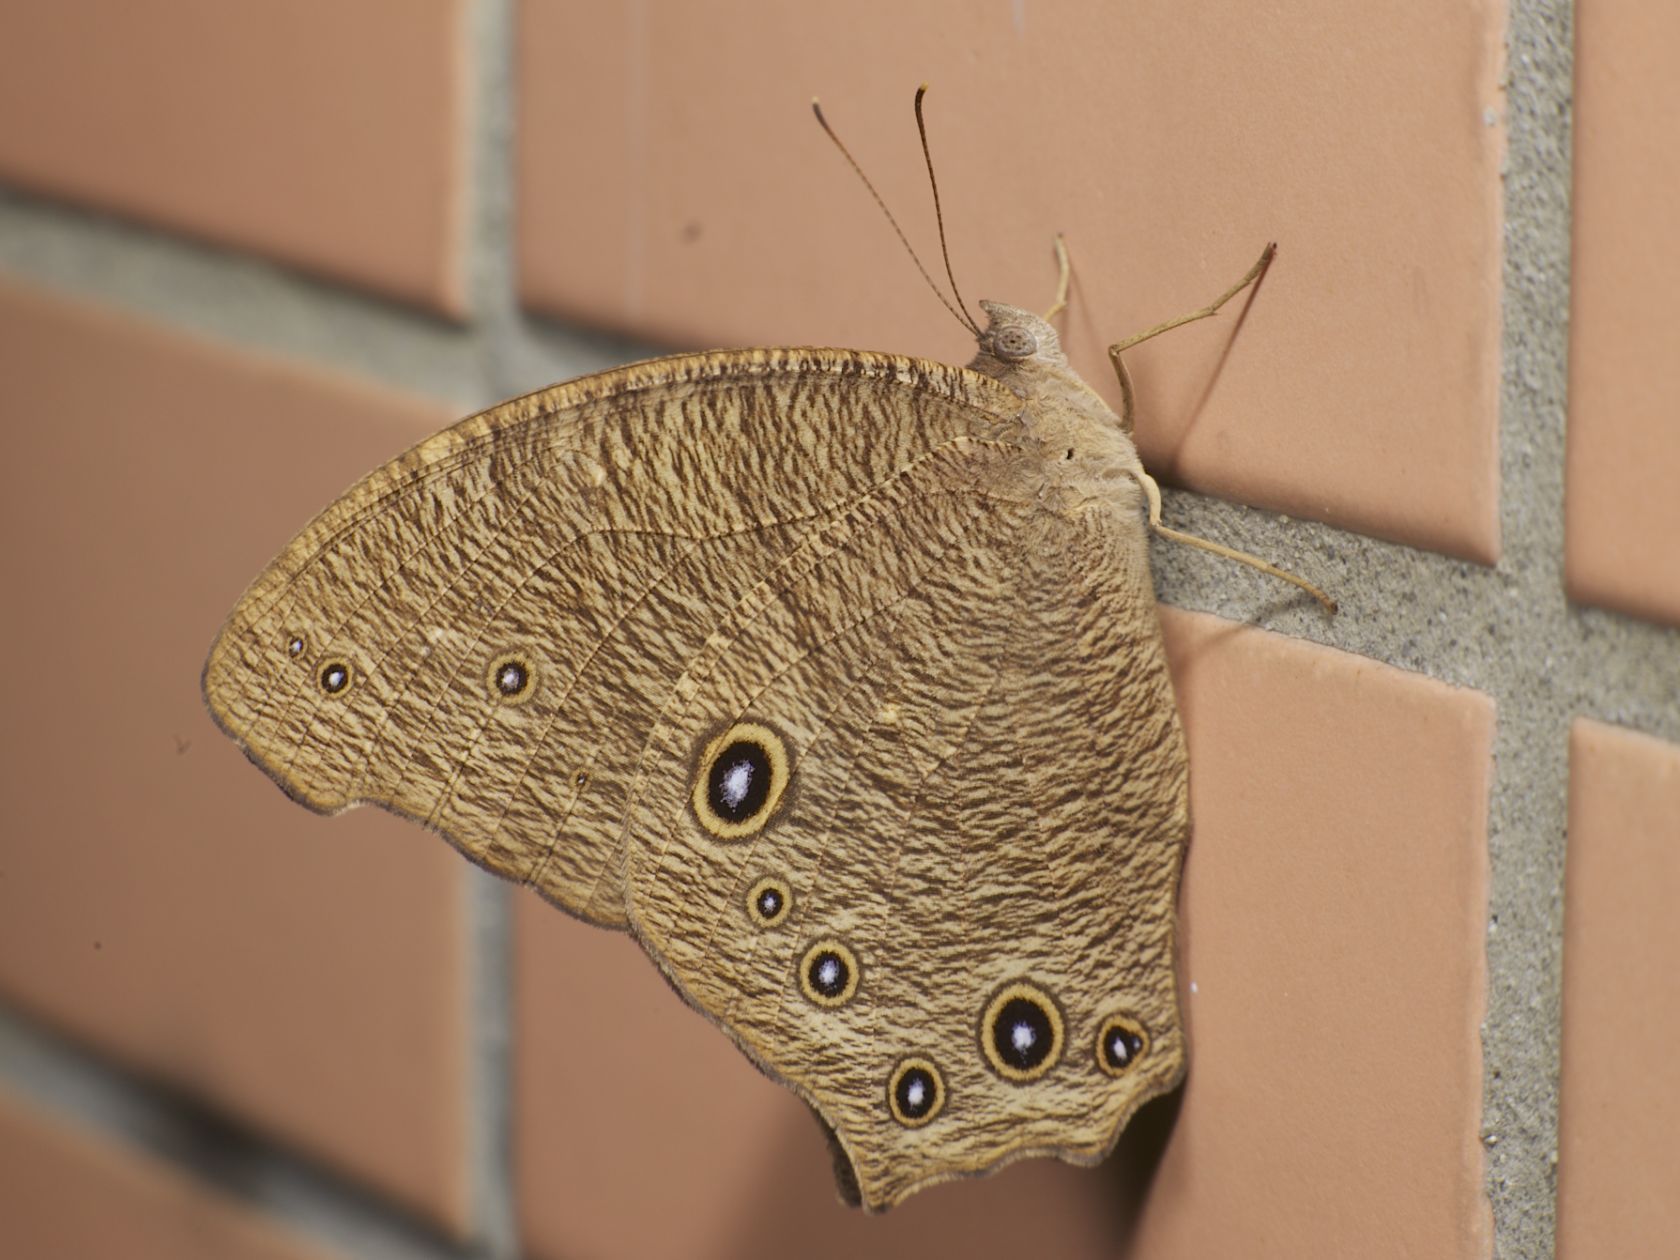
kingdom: Animalia
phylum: Arthropoda
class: Insecta
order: Lepidoptera
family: Nymphalidae
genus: Melanitis
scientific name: Melanitis leda
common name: Twilight brown
